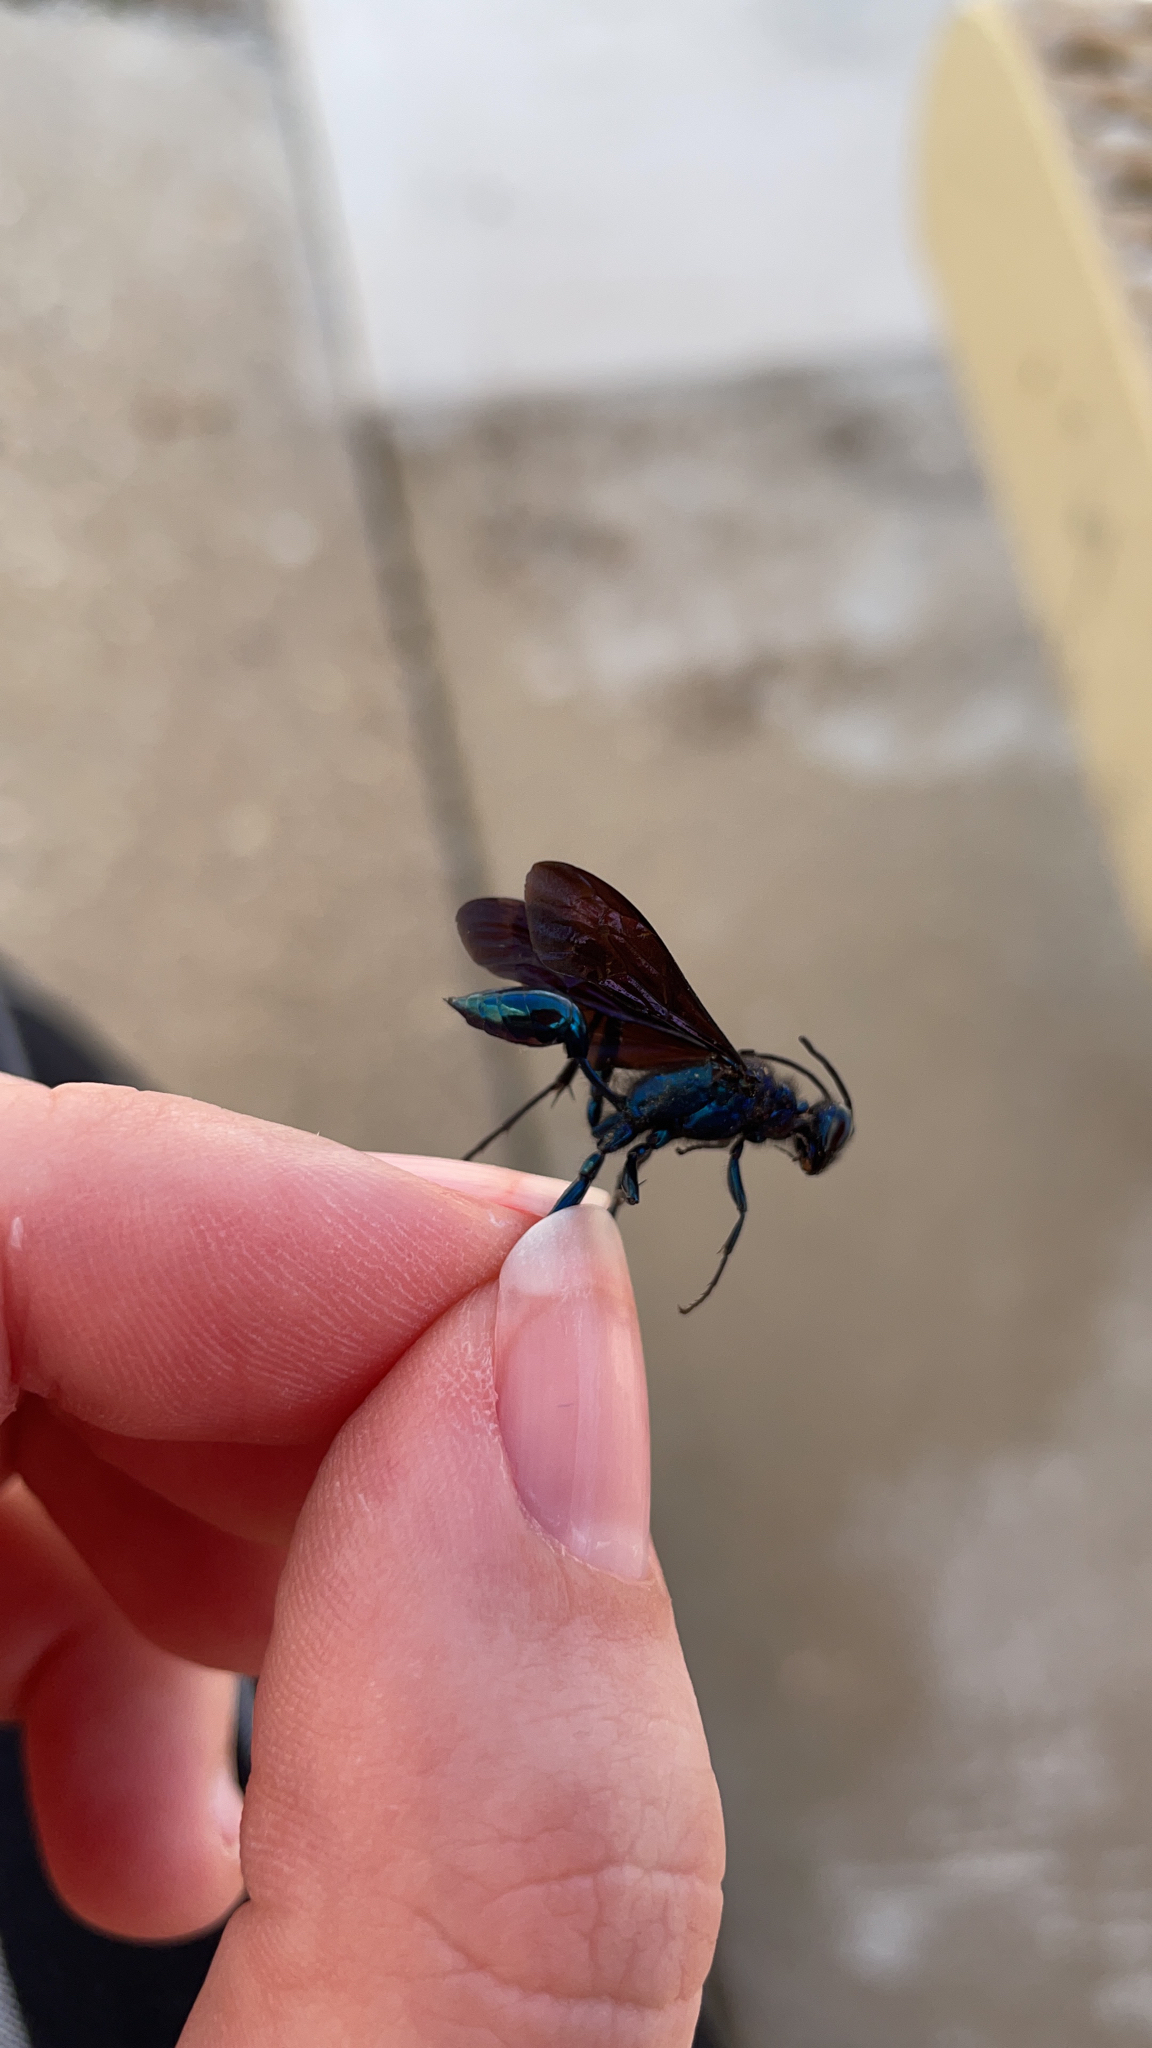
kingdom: Animalia
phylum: Arthropoda
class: Insecta
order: Hymenoptera
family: Sphecidae
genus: Chalybion
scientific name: Chalybion californicum
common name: Mud dauber
